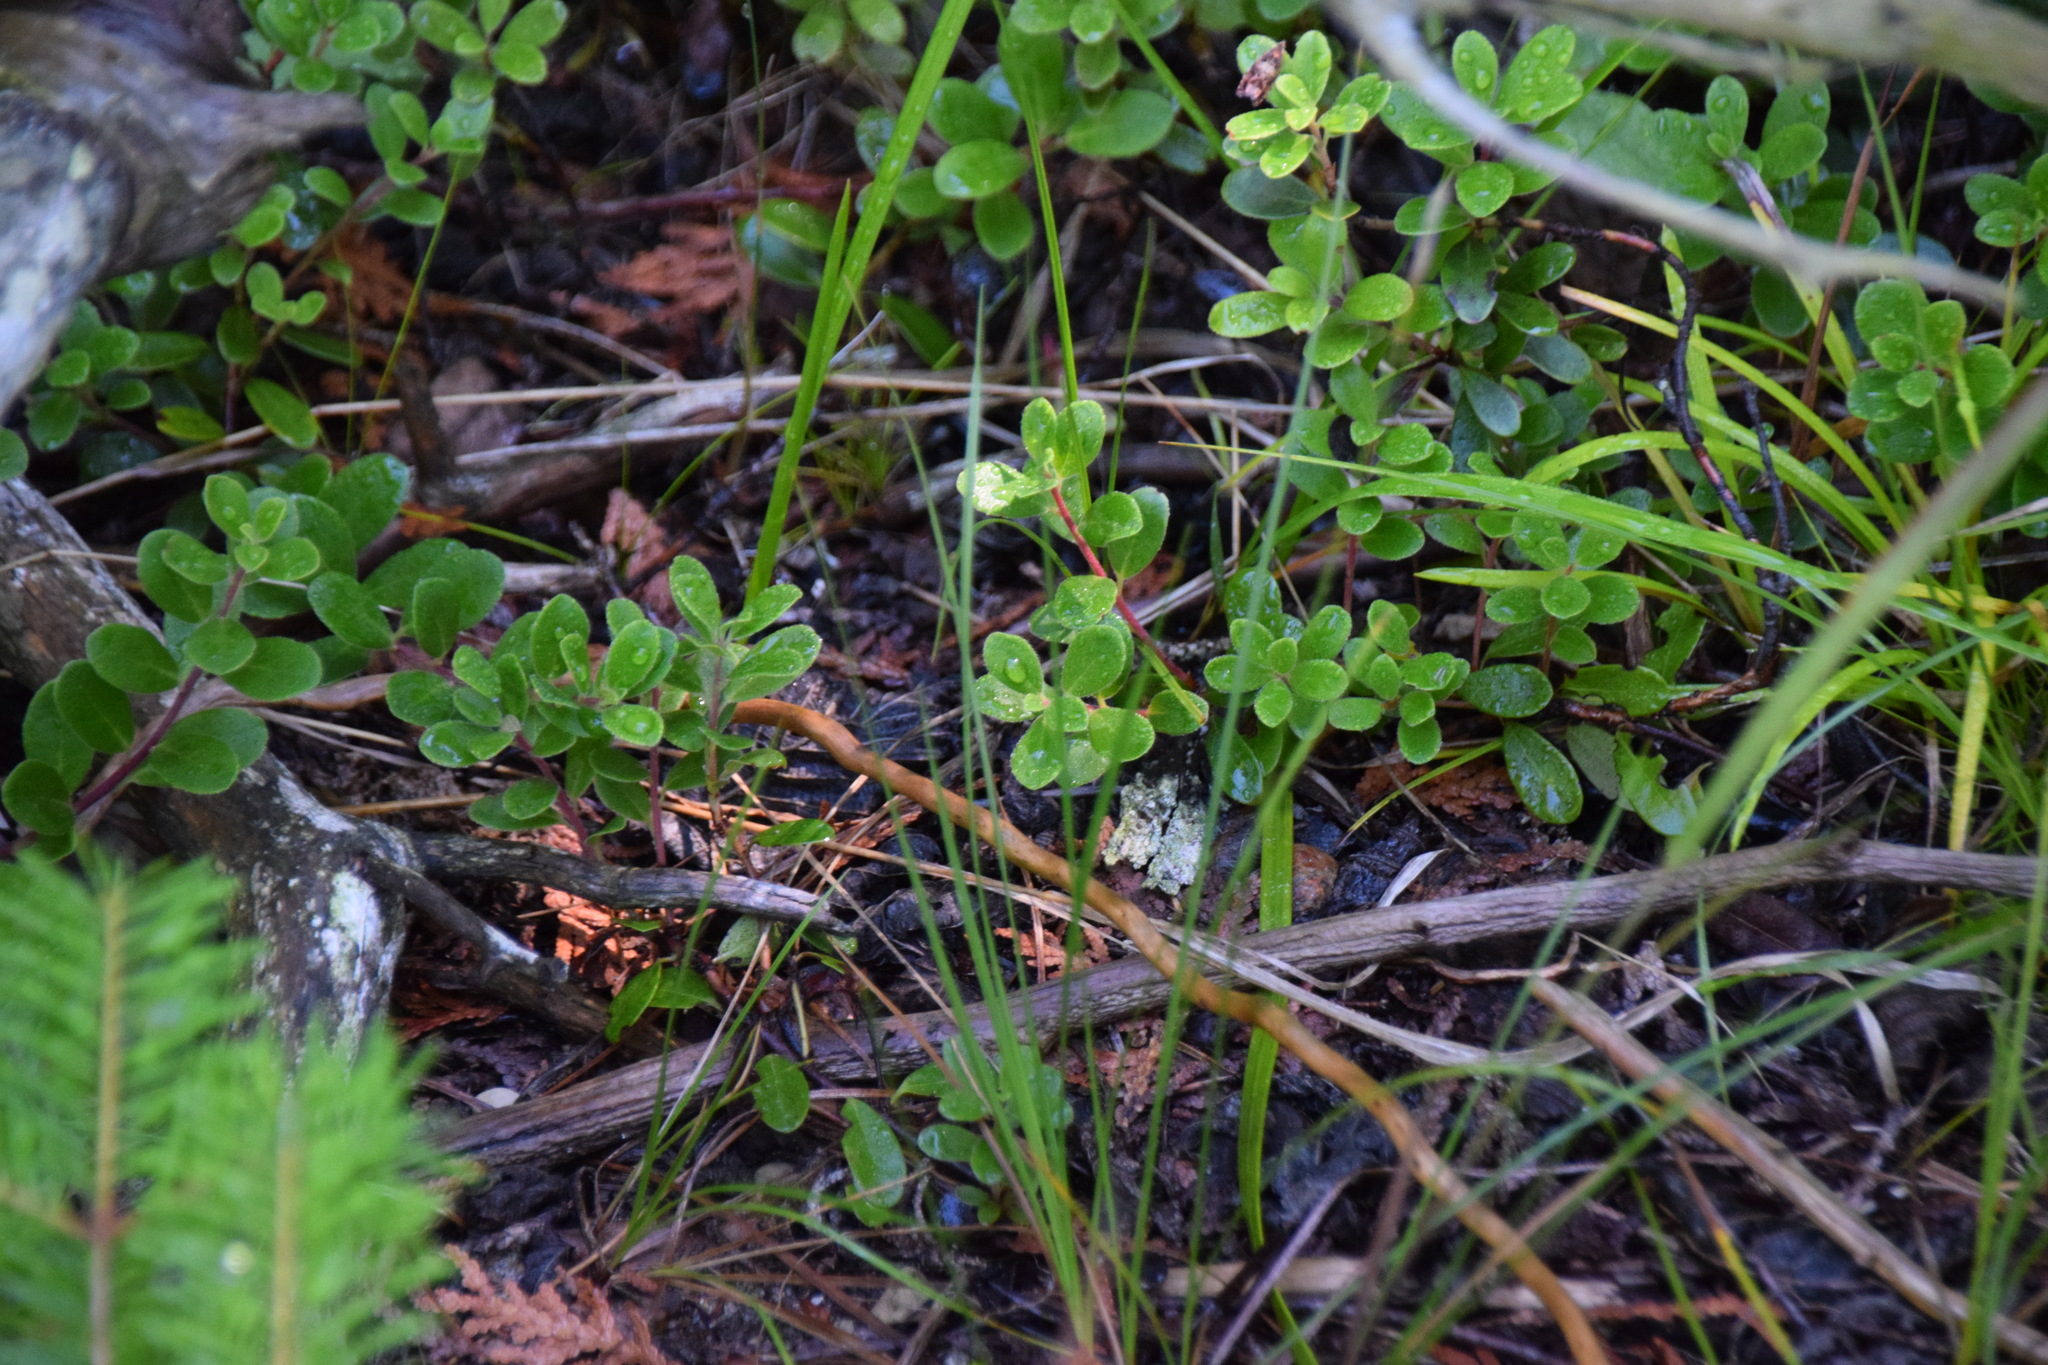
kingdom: Plantae
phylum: Tracheophyta
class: Magnoliopsida
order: Ericales
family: Ericaceae
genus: Arctostaphylos
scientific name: Arctostaphylos uva-ursi
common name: Bearberry
